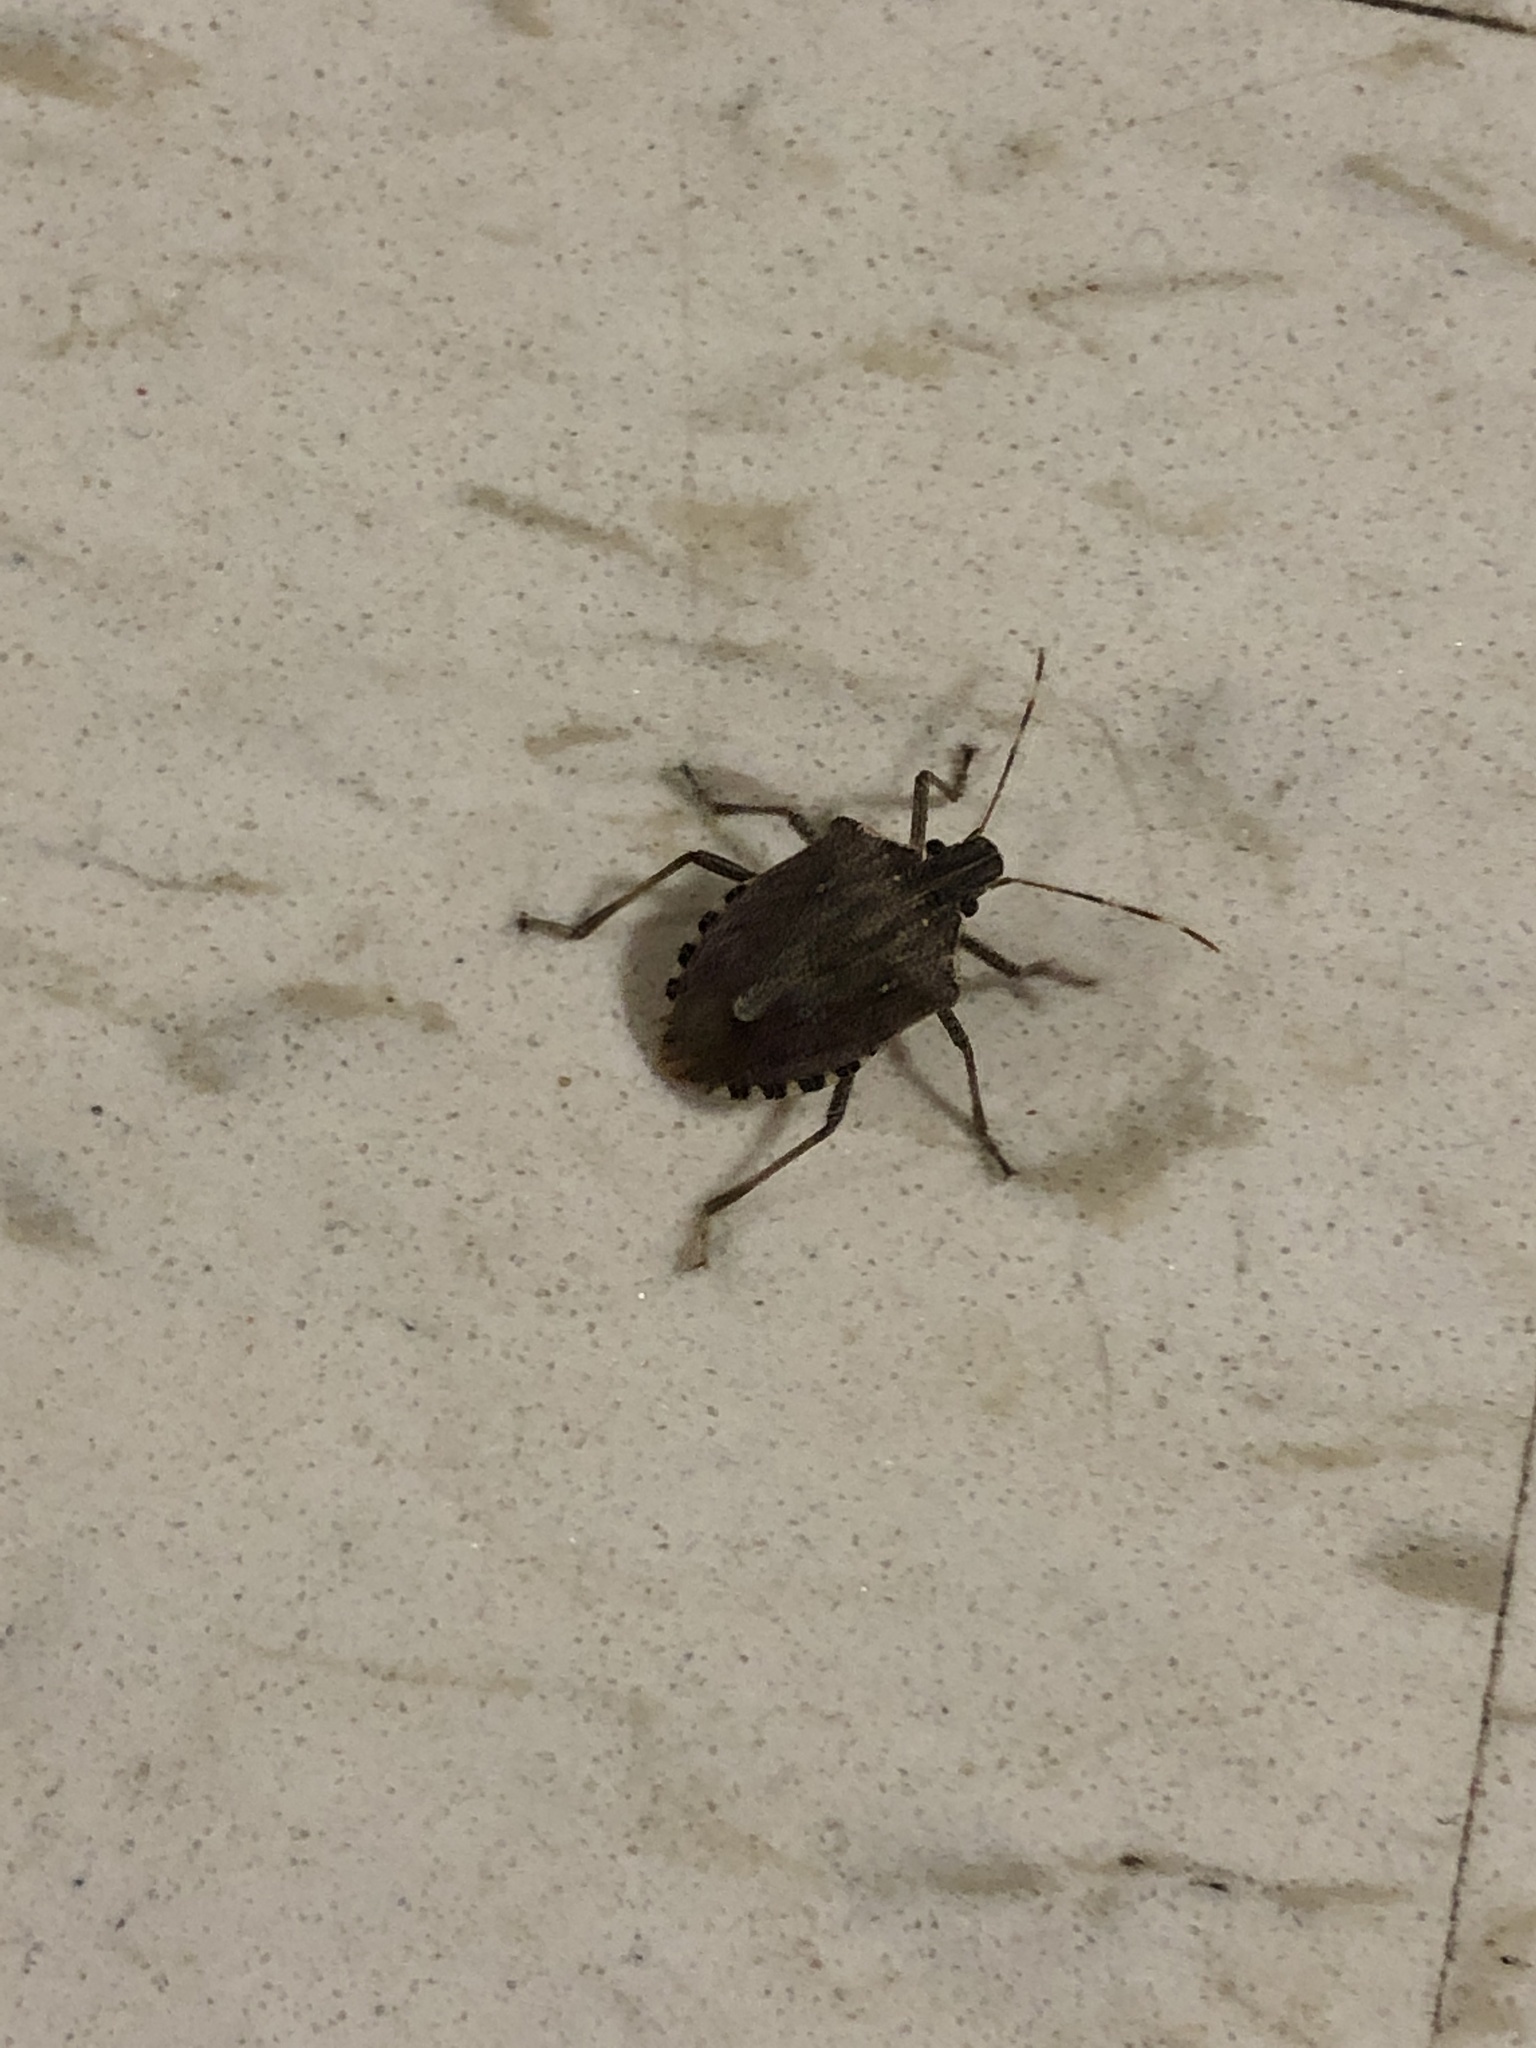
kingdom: Animalia
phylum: Arthropoda
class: Insecta
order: Hemiptera
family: Pentatomidae
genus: Halyomorpha
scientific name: Halyomorpha halys
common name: Brown marmorated stink bug
